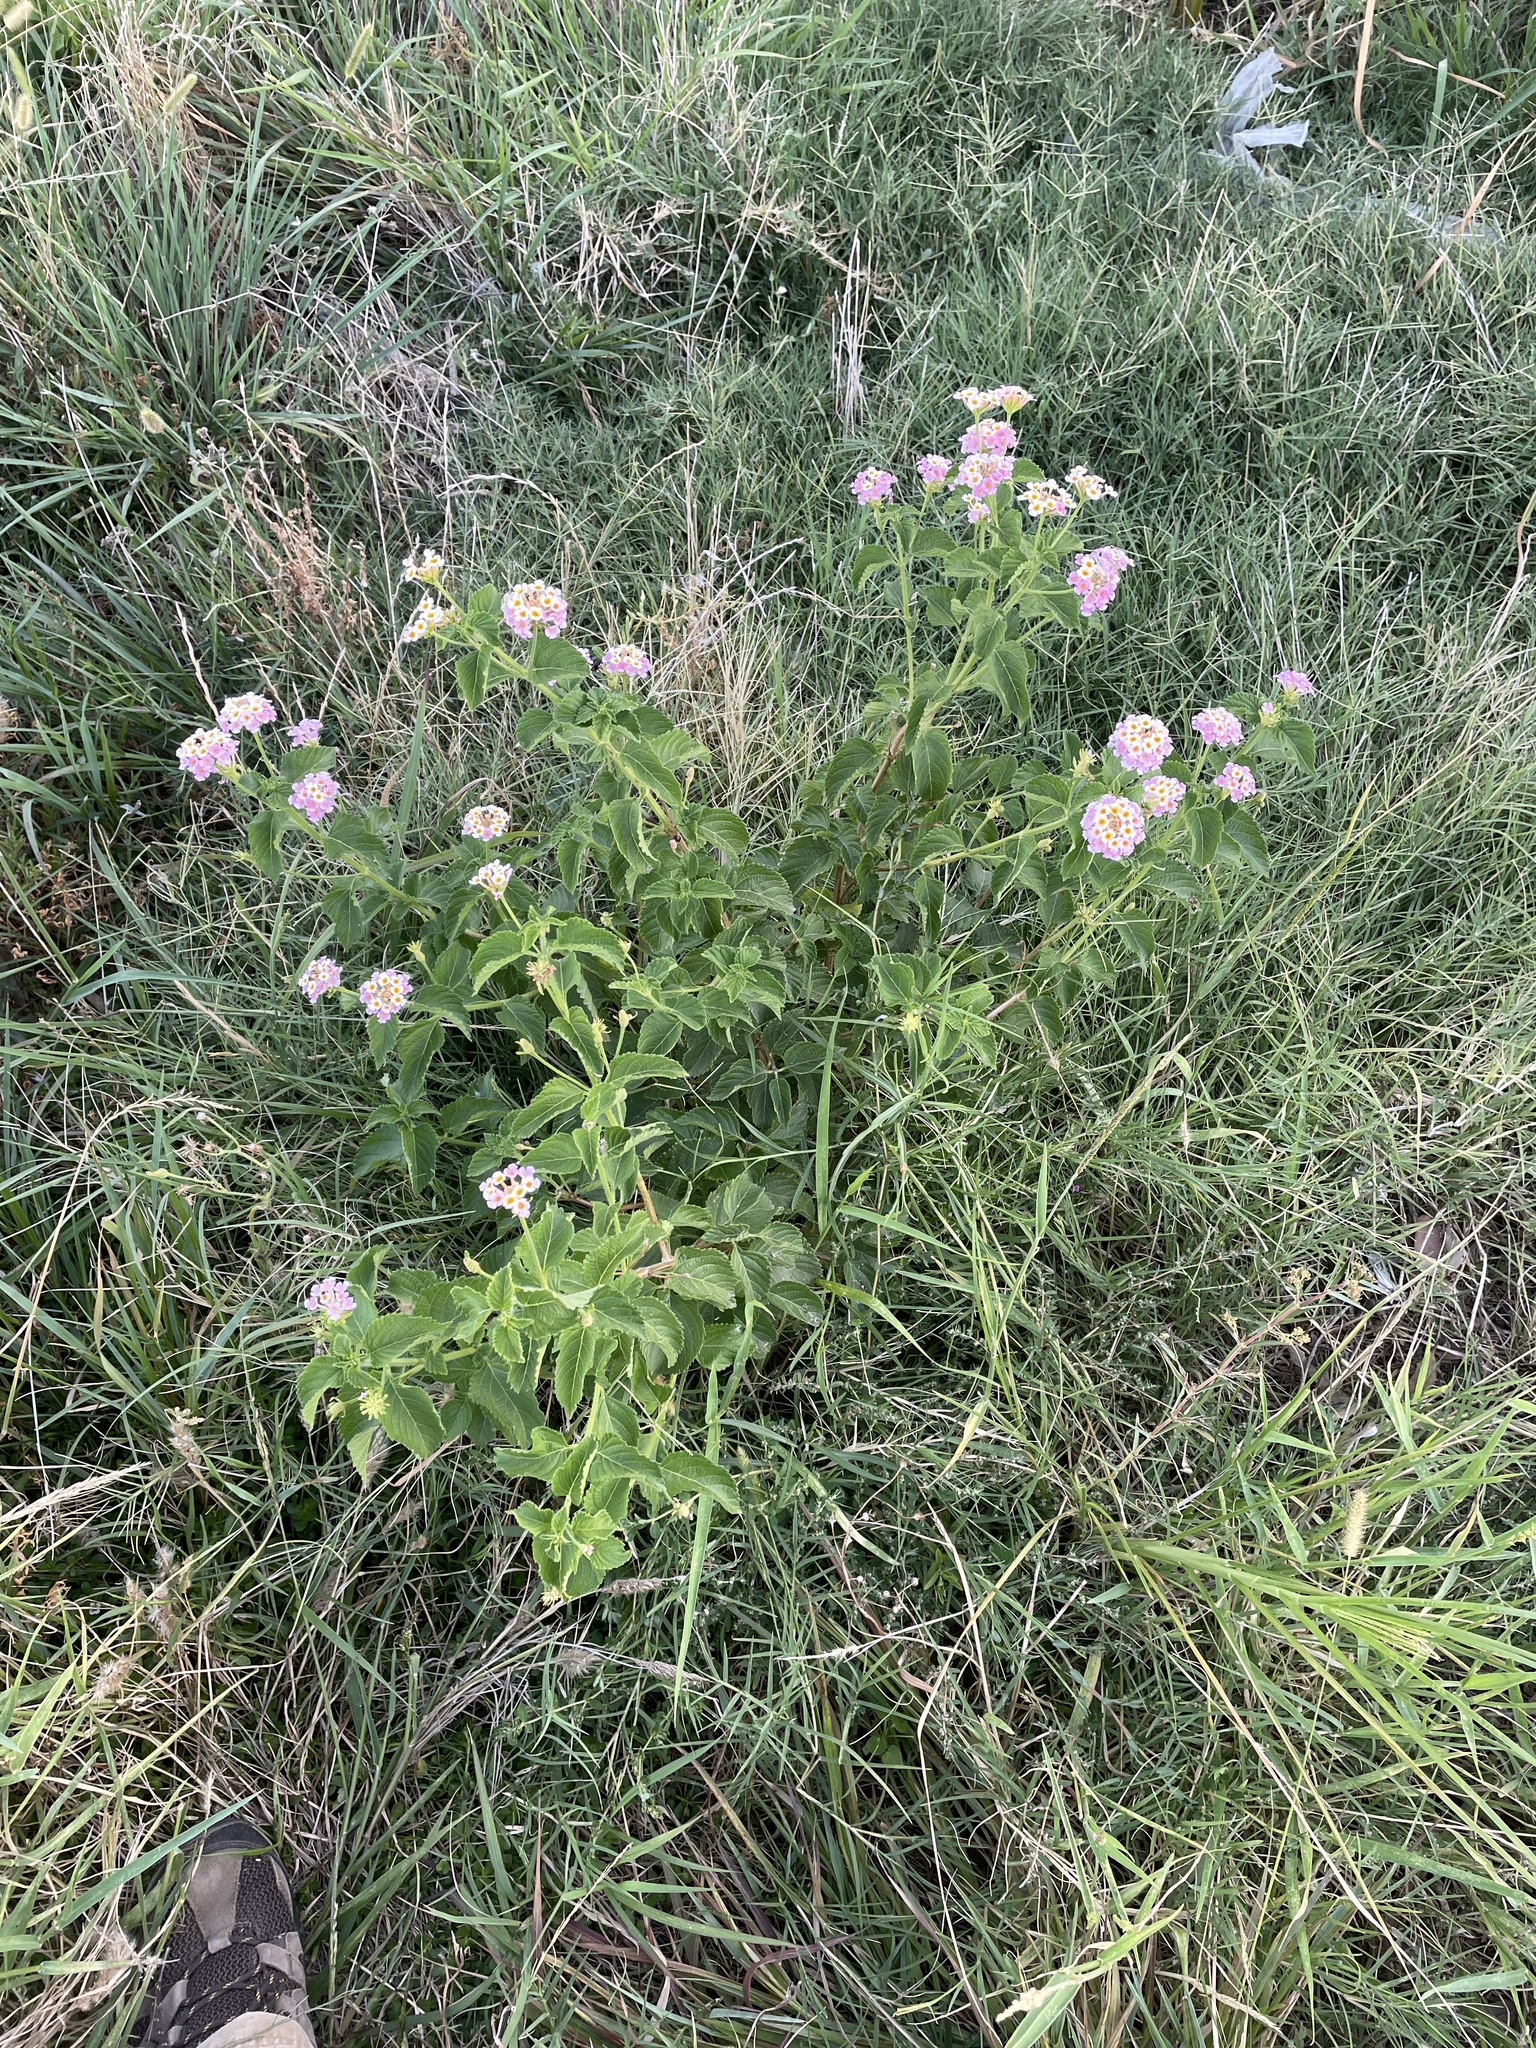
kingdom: Plantae
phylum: Tracheophyta
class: Magnoliopsida
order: Lamiales
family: Verbenaceae
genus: Lantana
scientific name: Lantana strigocamara
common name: Lantana
